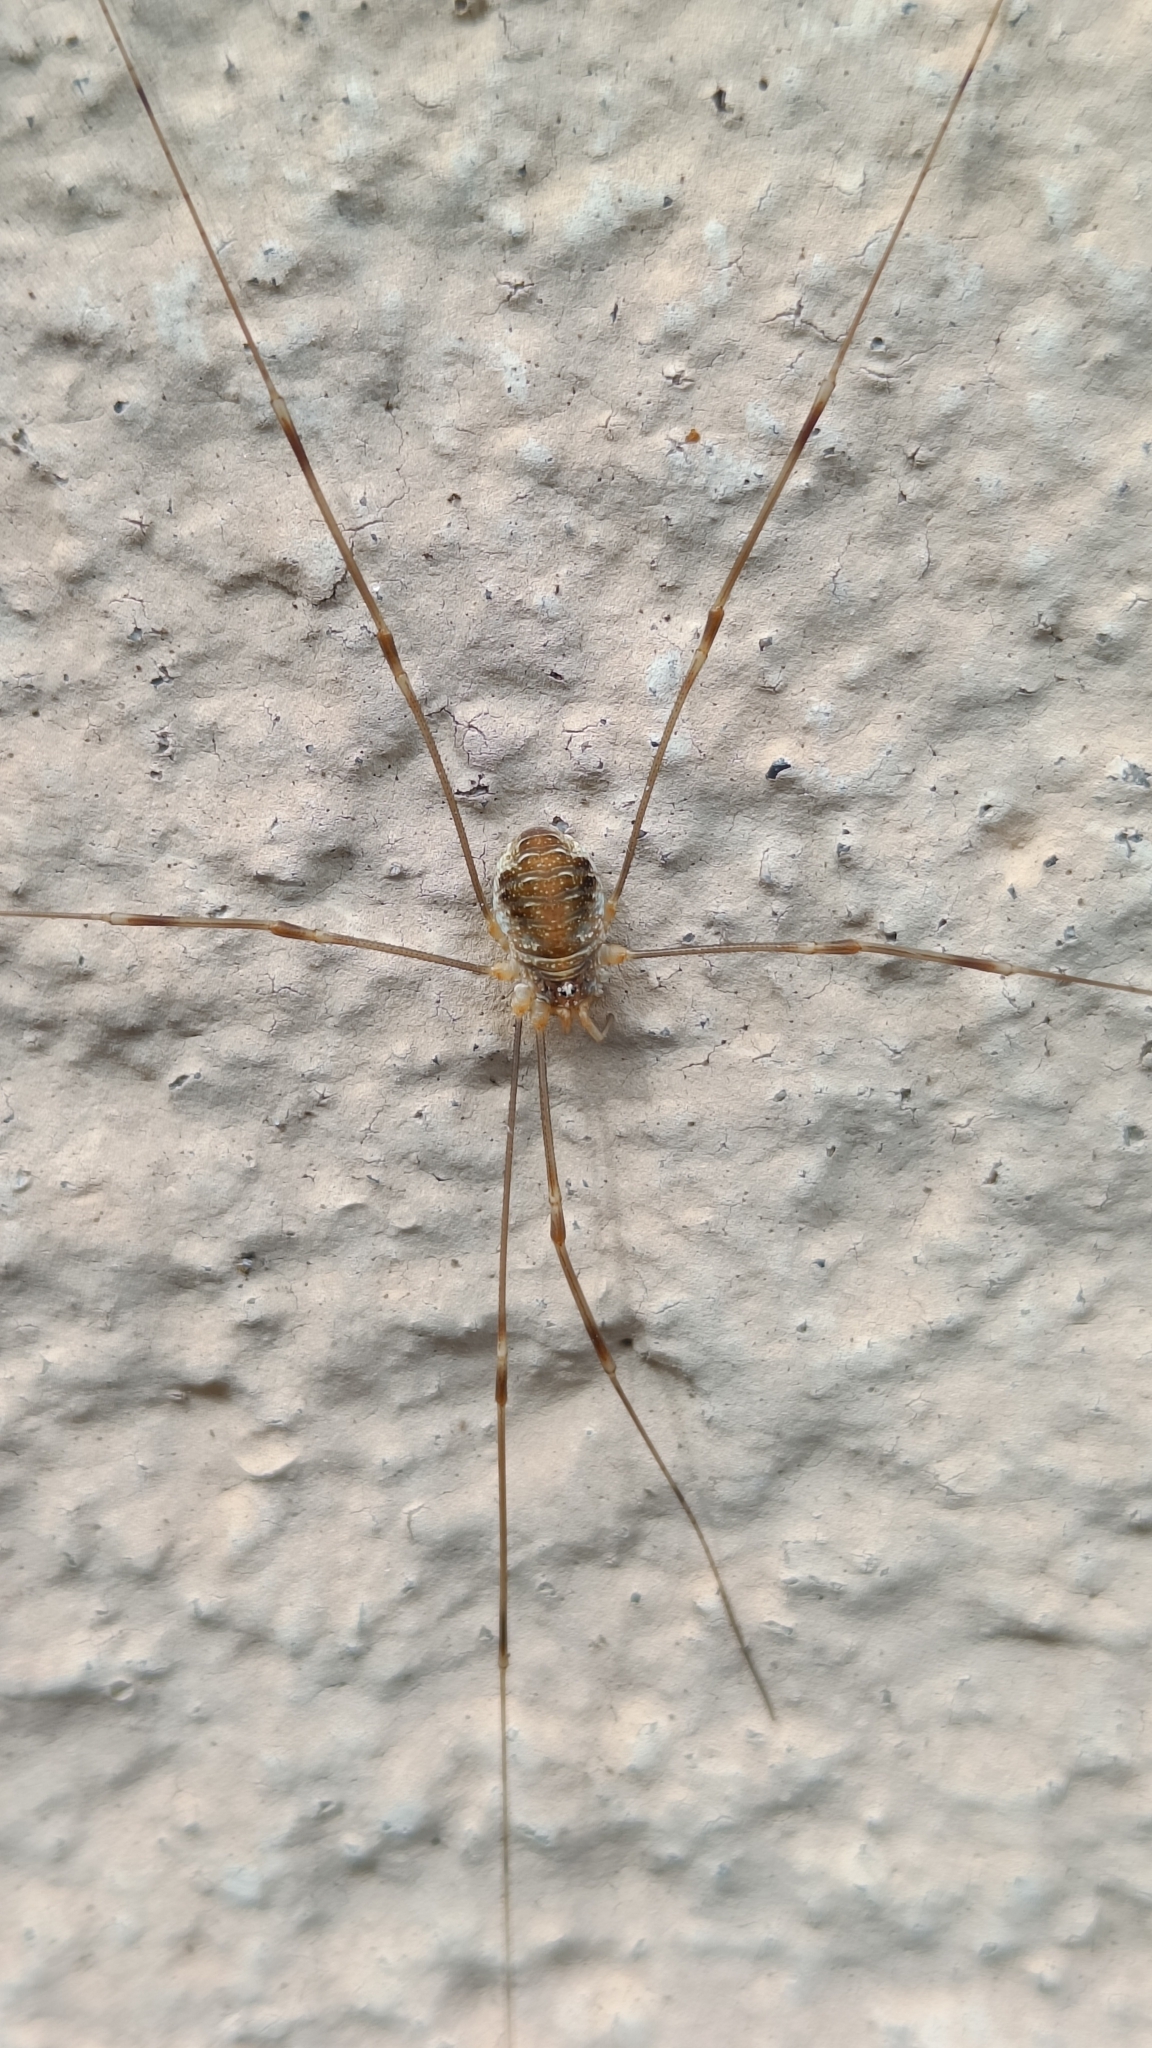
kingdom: Animalia
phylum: Arthropoda
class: Arachnida
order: Opiliones
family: Phalangiidae
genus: Opilio
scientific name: Opilio canestrinii
